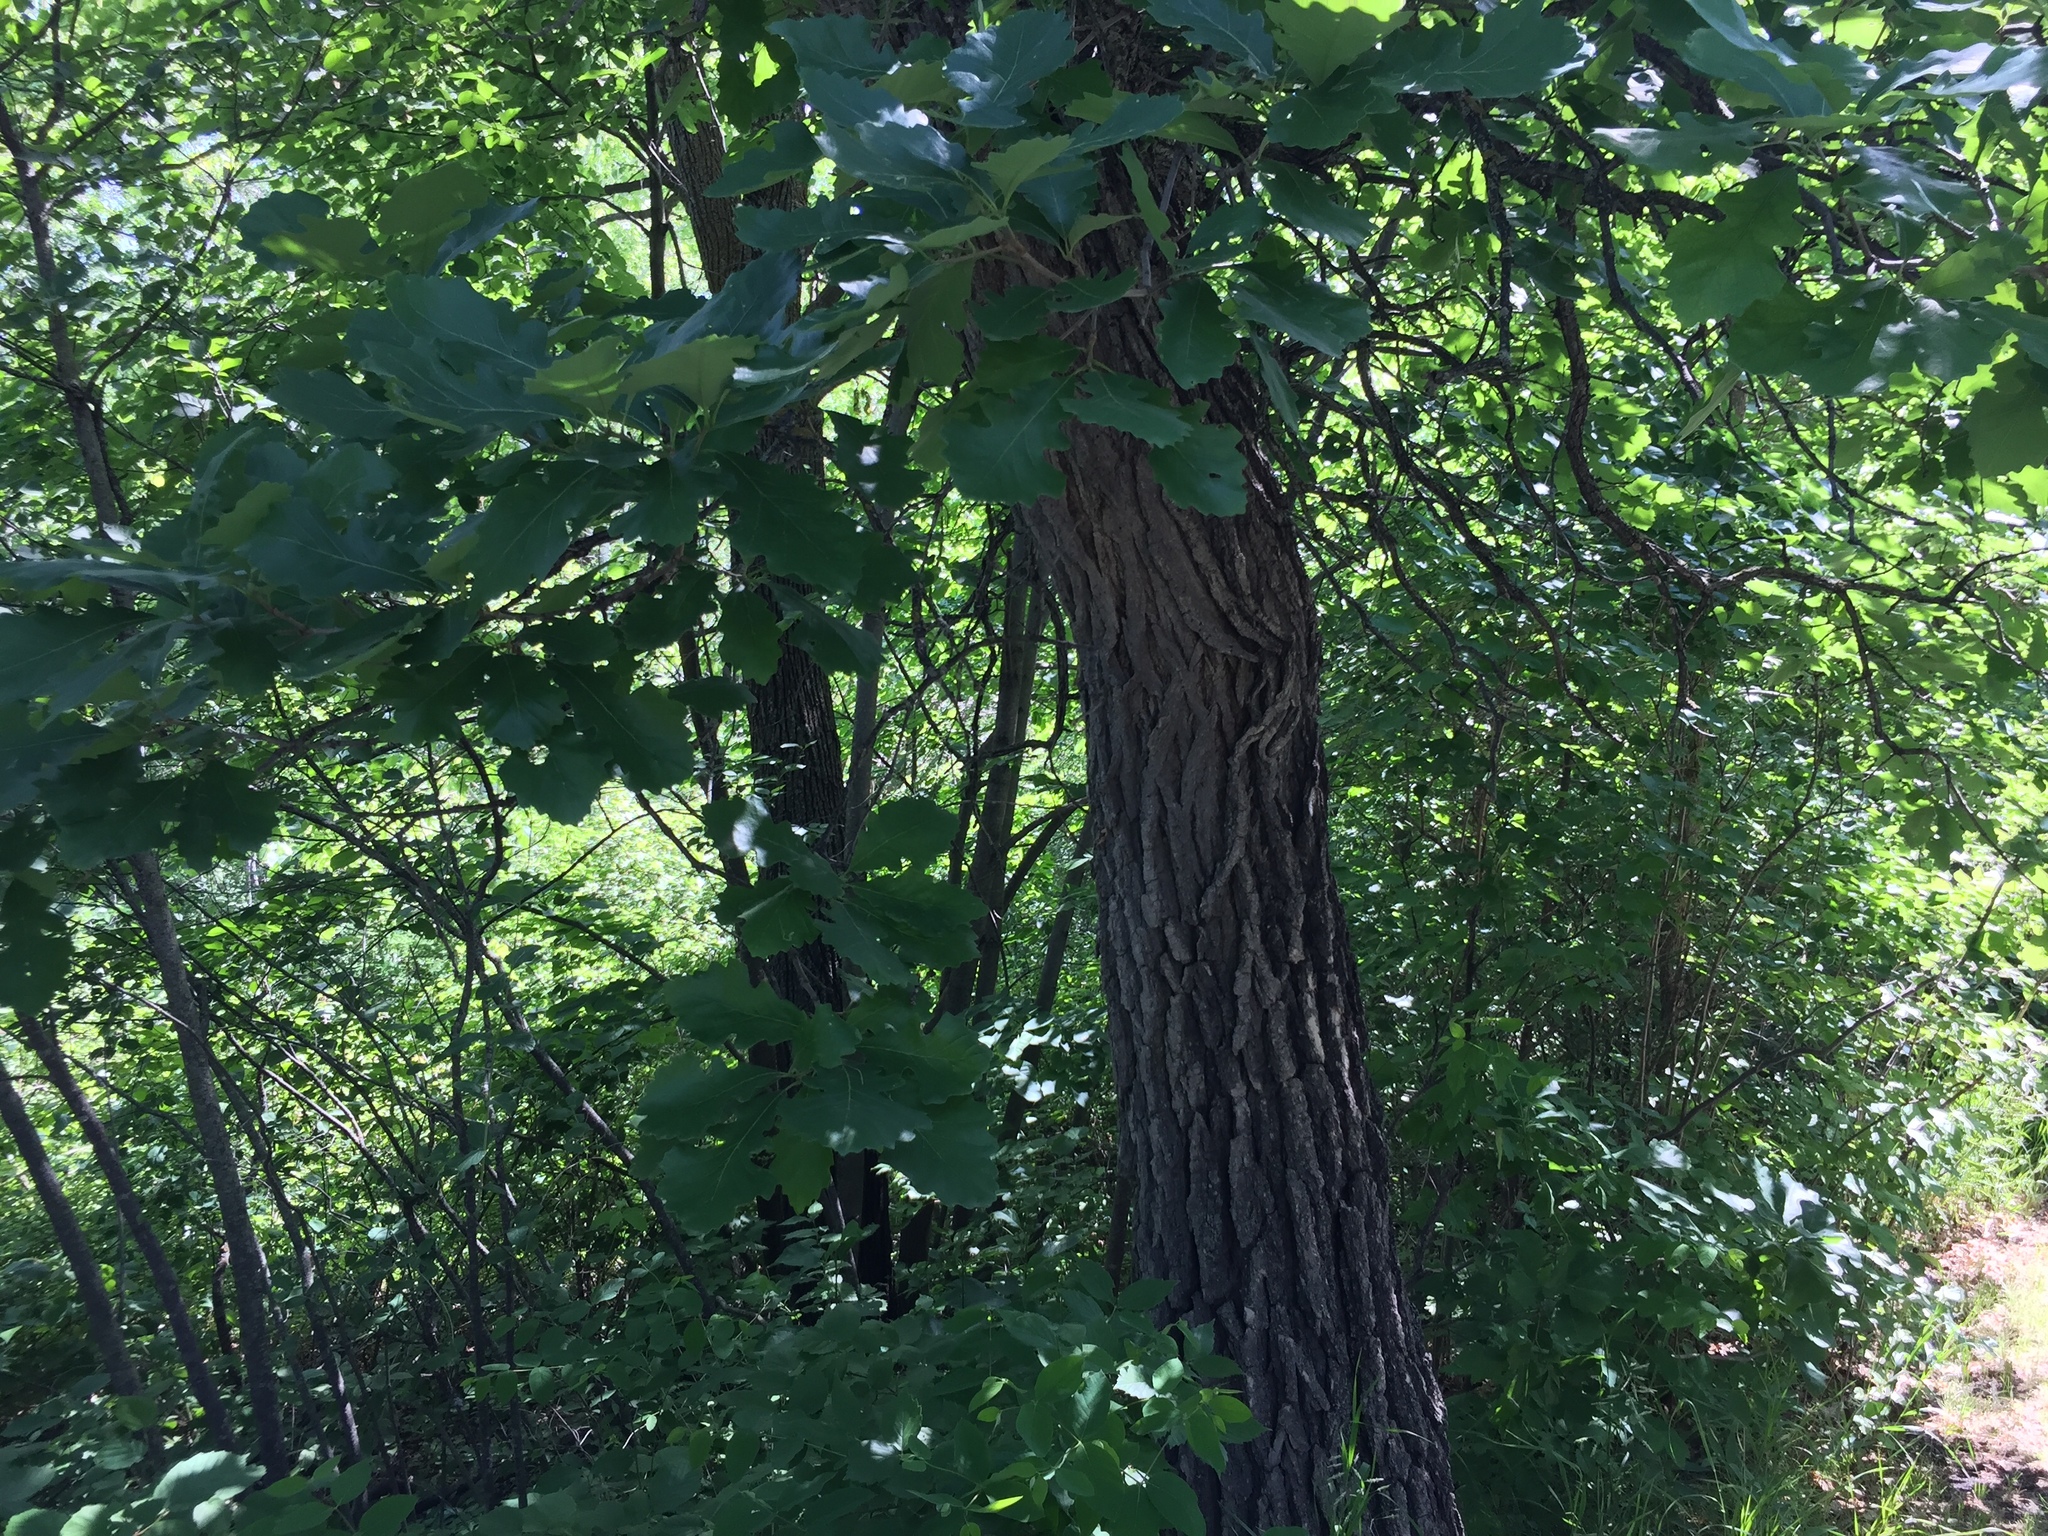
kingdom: Plantae
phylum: Tracheophyta
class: Magnoliopsida
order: Fagales
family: Fagaceae
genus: Quercus
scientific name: Quercus macrocarpa
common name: Bur oak
